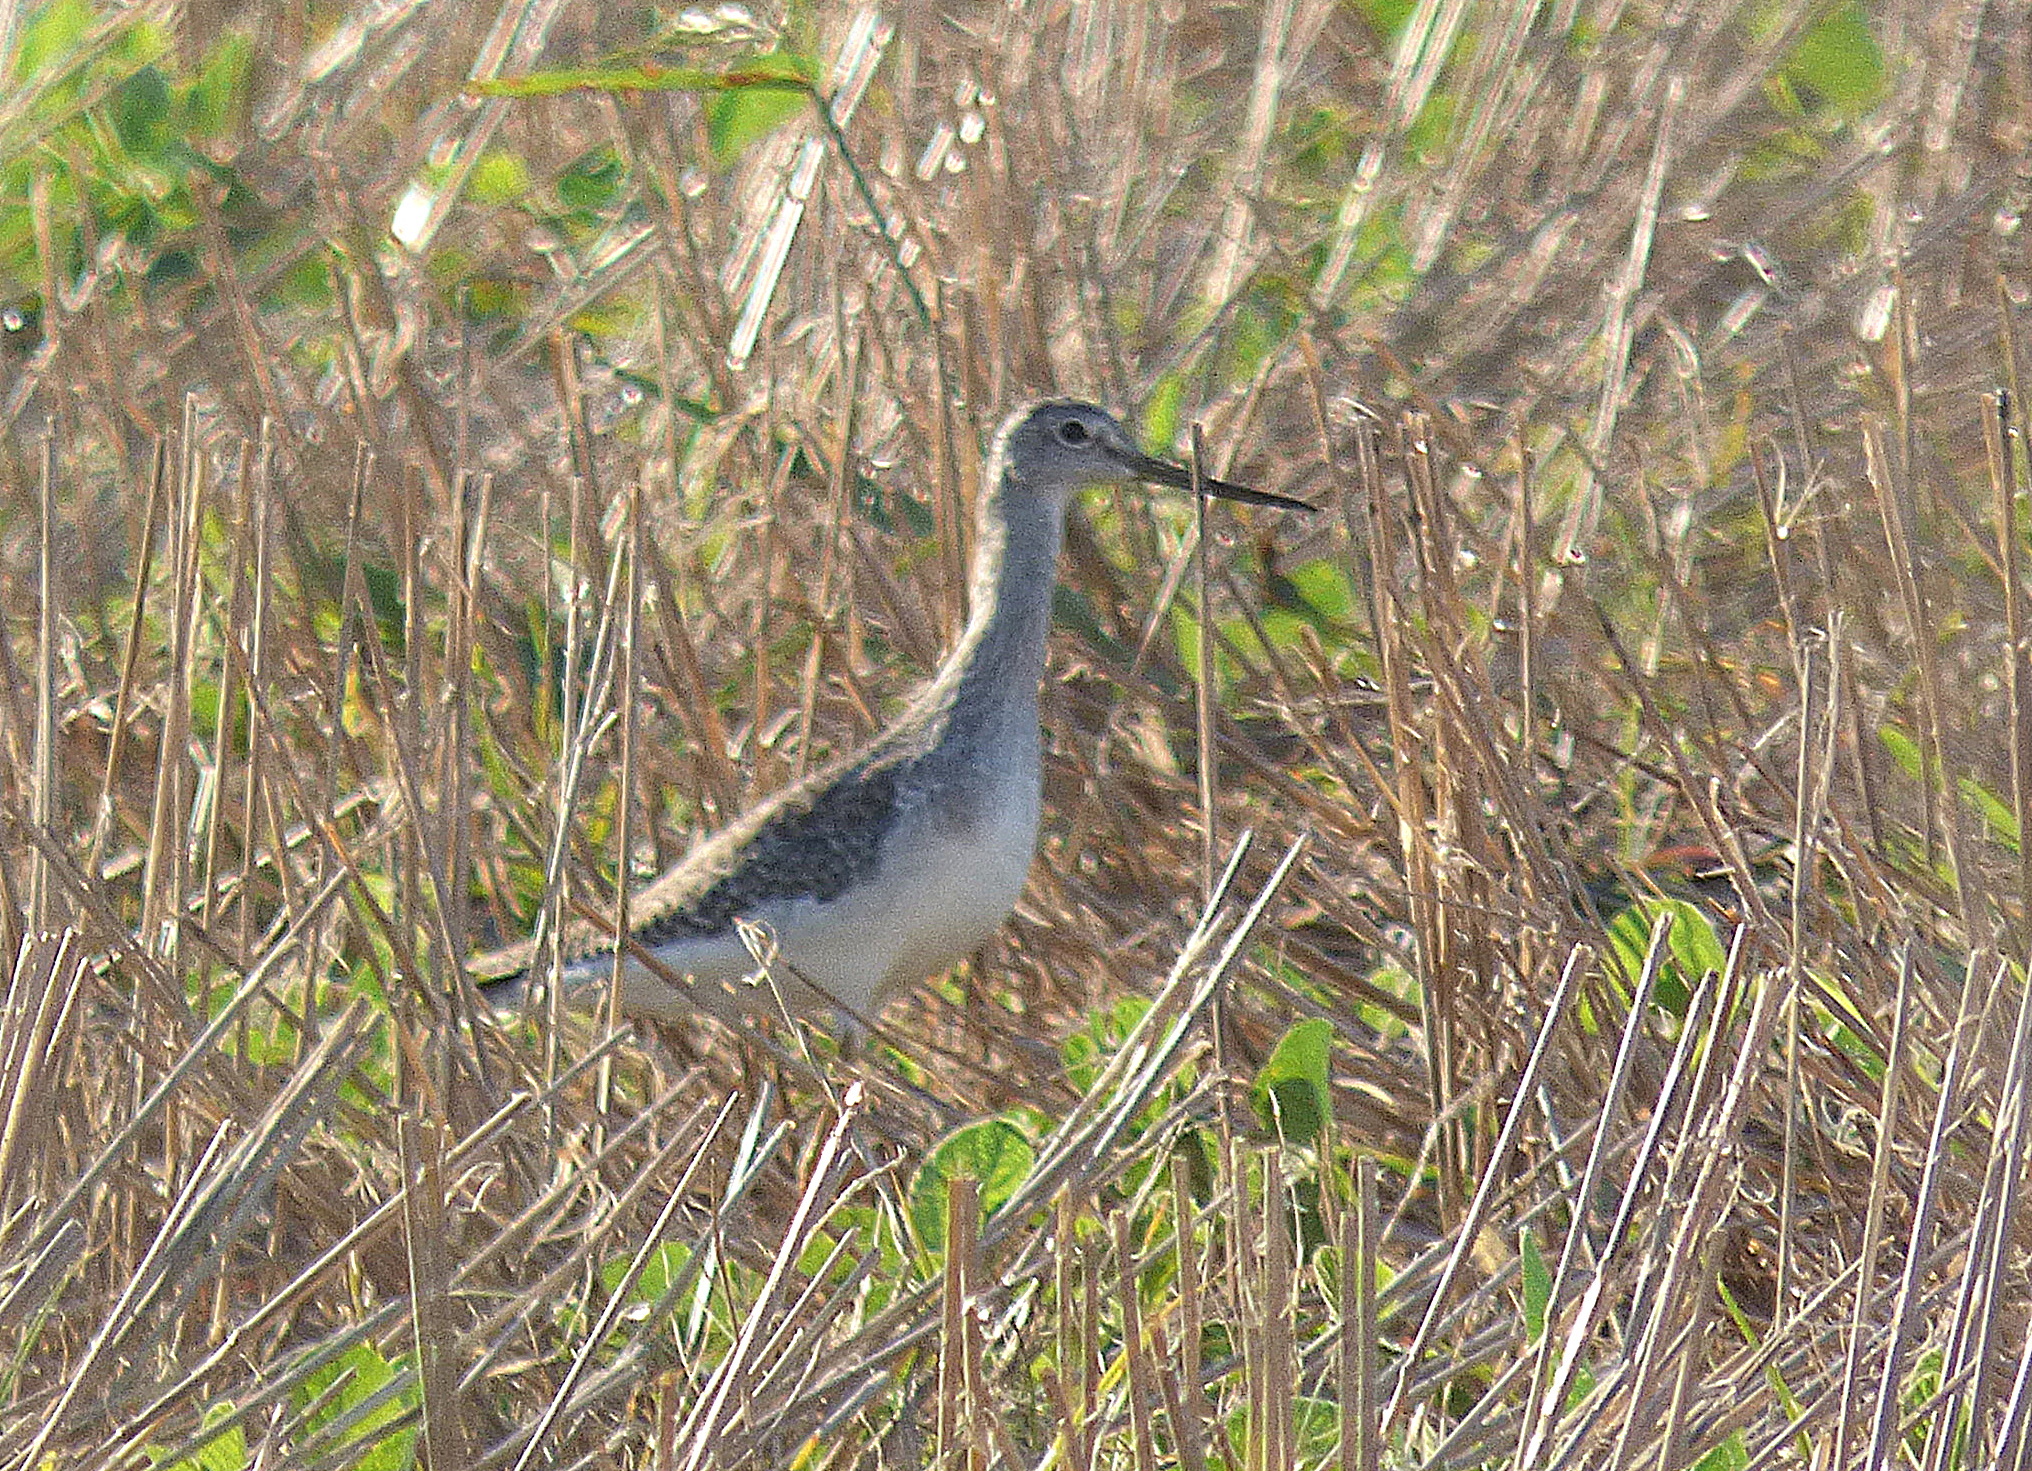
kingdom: Animalia
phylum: Chordata
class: Aves
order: Charadriiformes
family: Scolopacidae
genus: Tringa
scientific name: Tringa melanoleuca
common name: Greater yellowlegs
